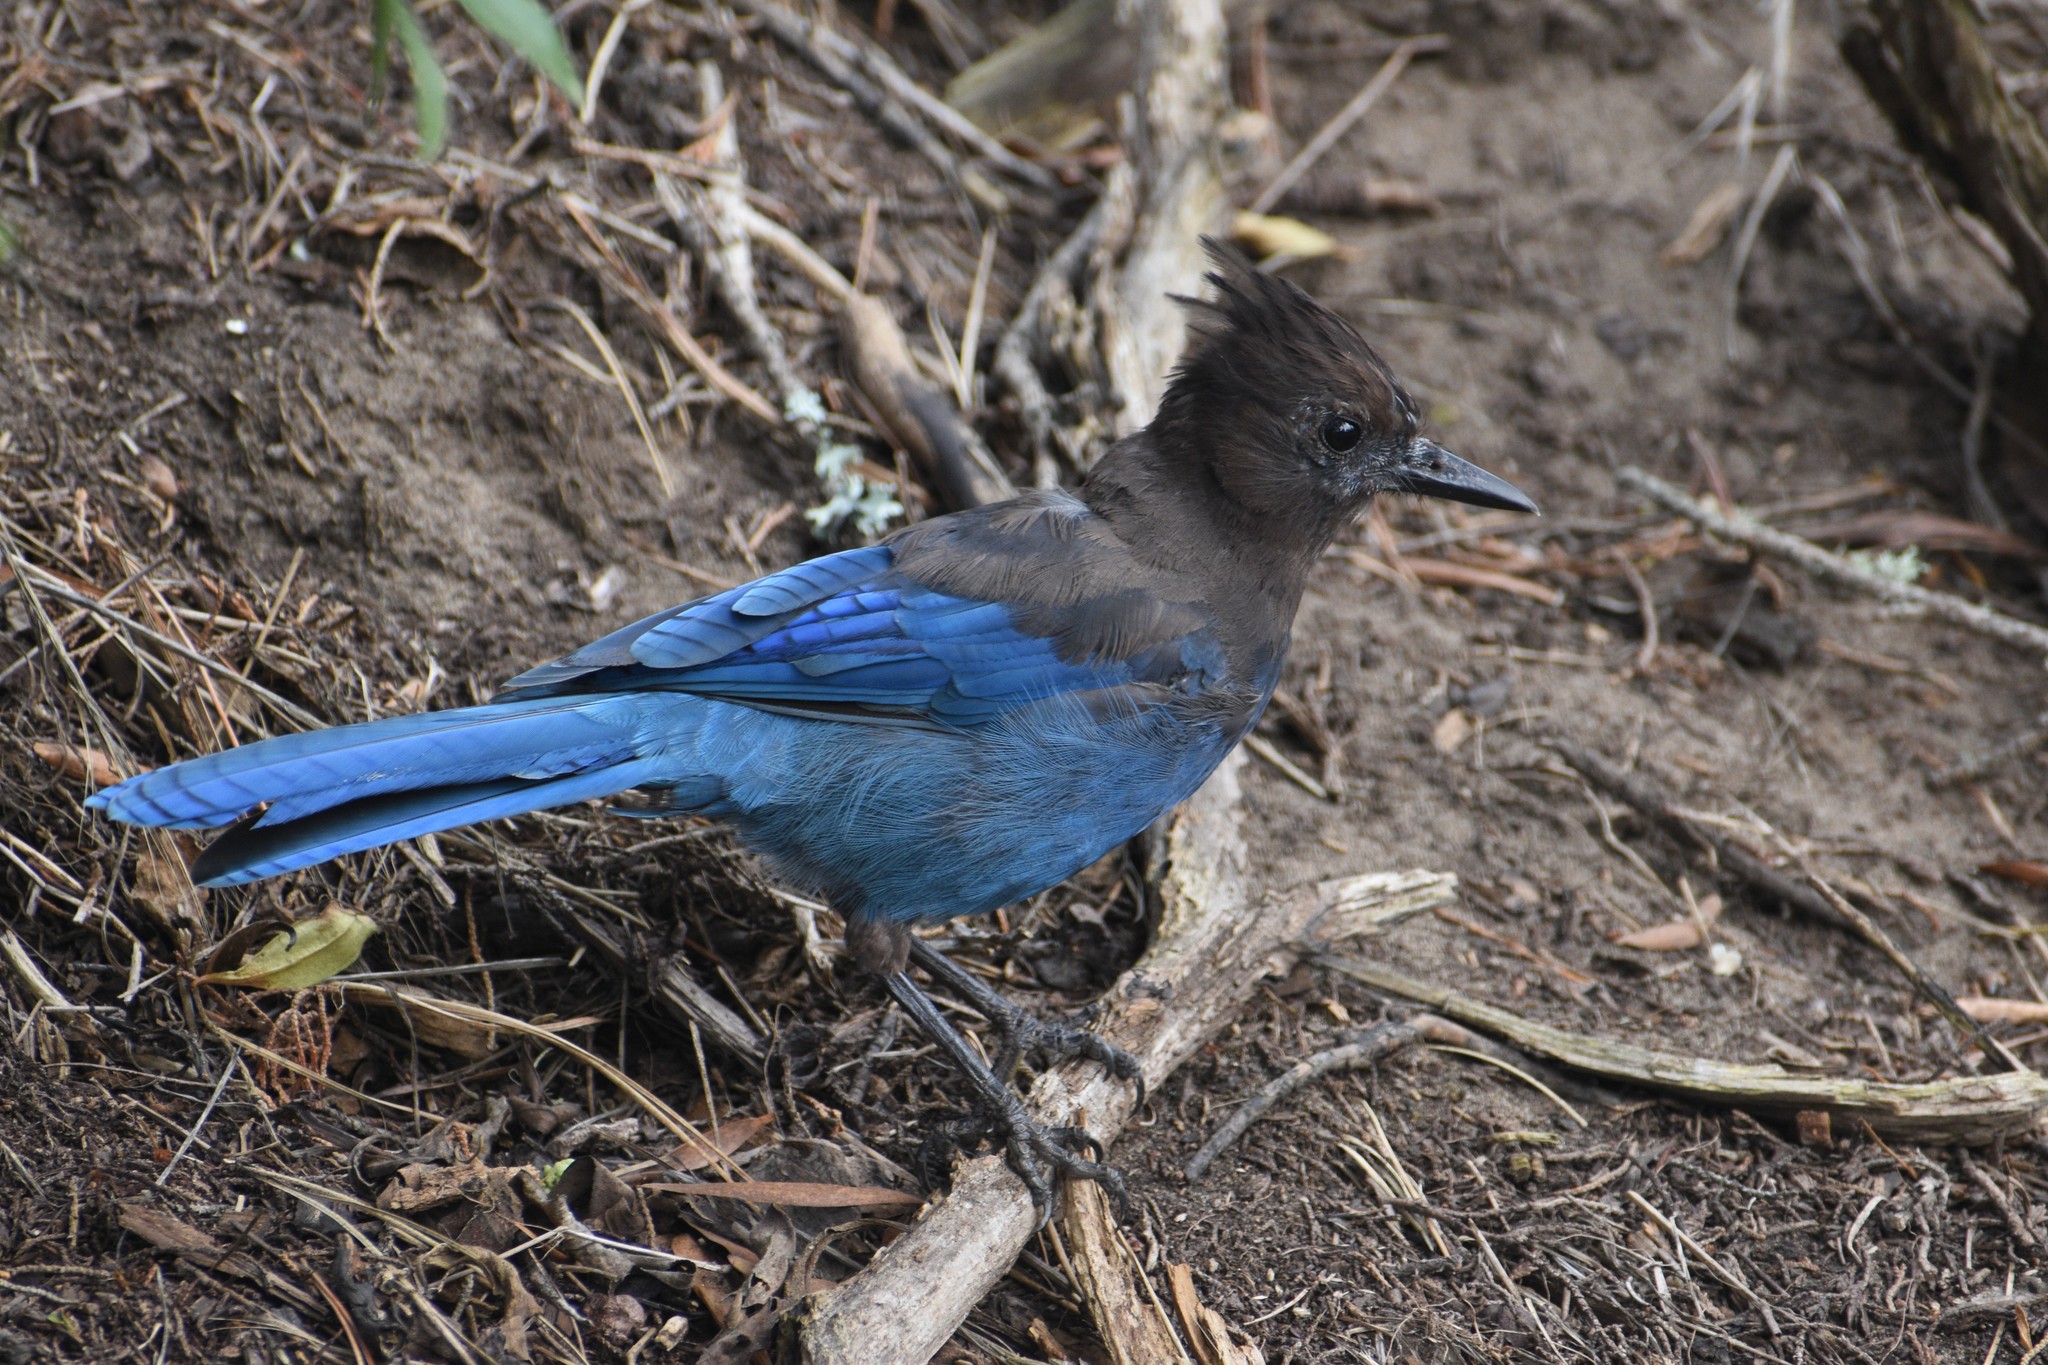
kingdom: Animalia
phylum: Chordata
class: Aves
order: Passeriformes
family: Corvidae
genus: Cyanocitta
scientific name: Cyanocitta stelleri
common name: Steller's jay
